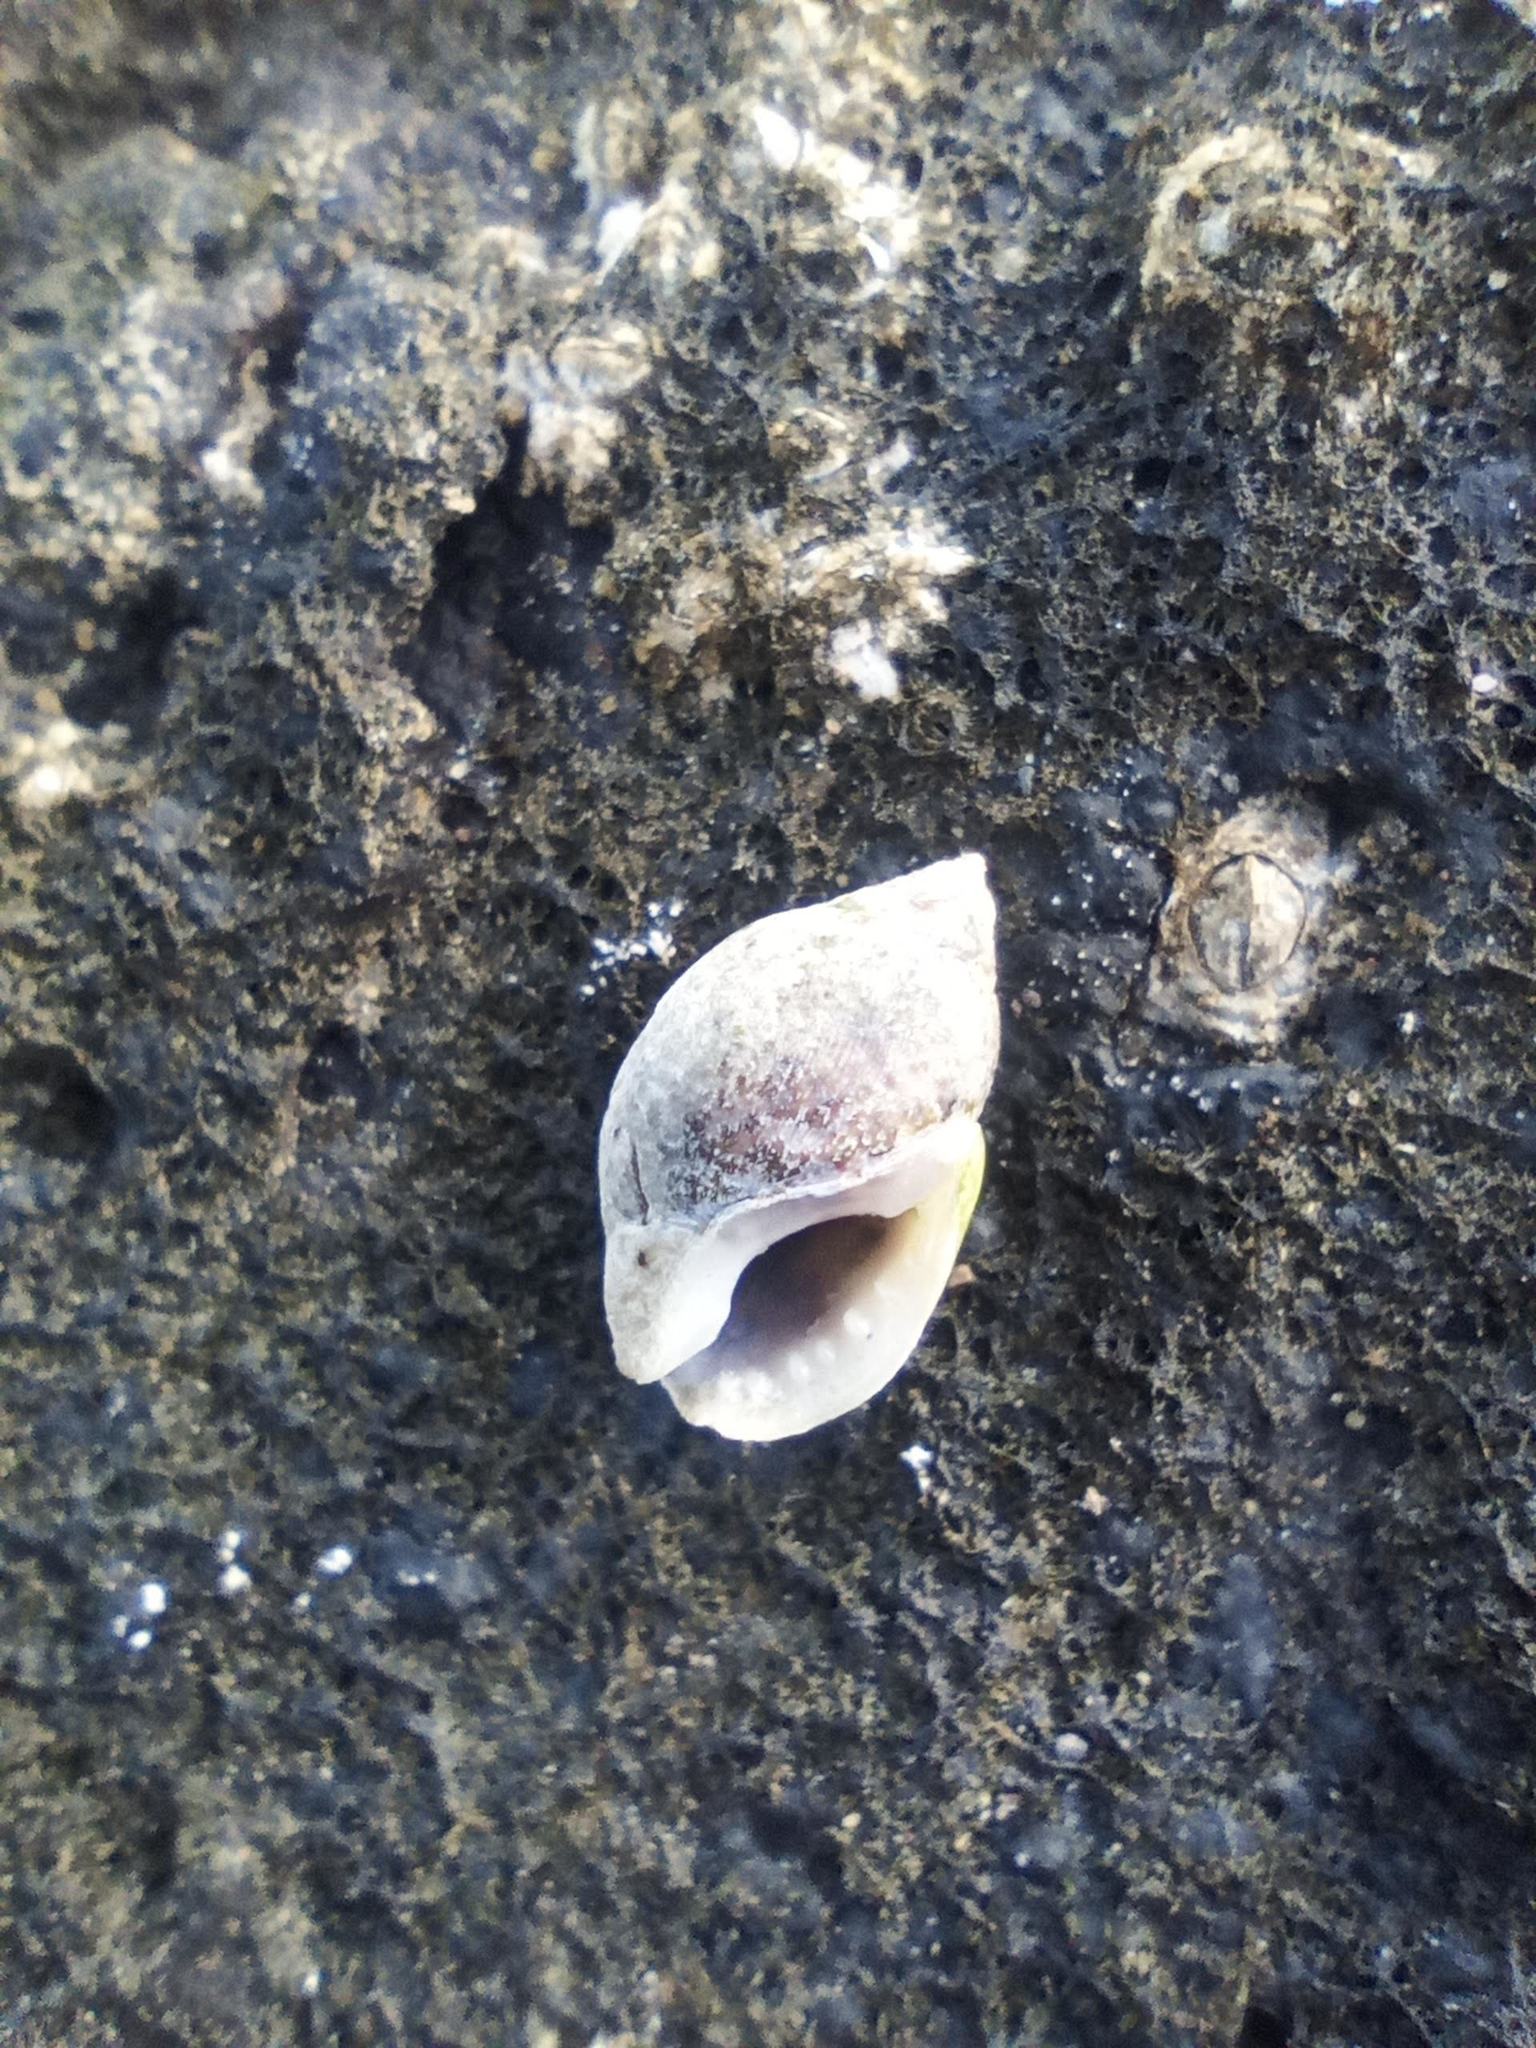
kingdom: Animalia
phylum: Mollusca
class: Gastropoda
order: Neogastropoda
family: Nassariidae
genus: Tritia
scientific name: Tritia pfeifferi
